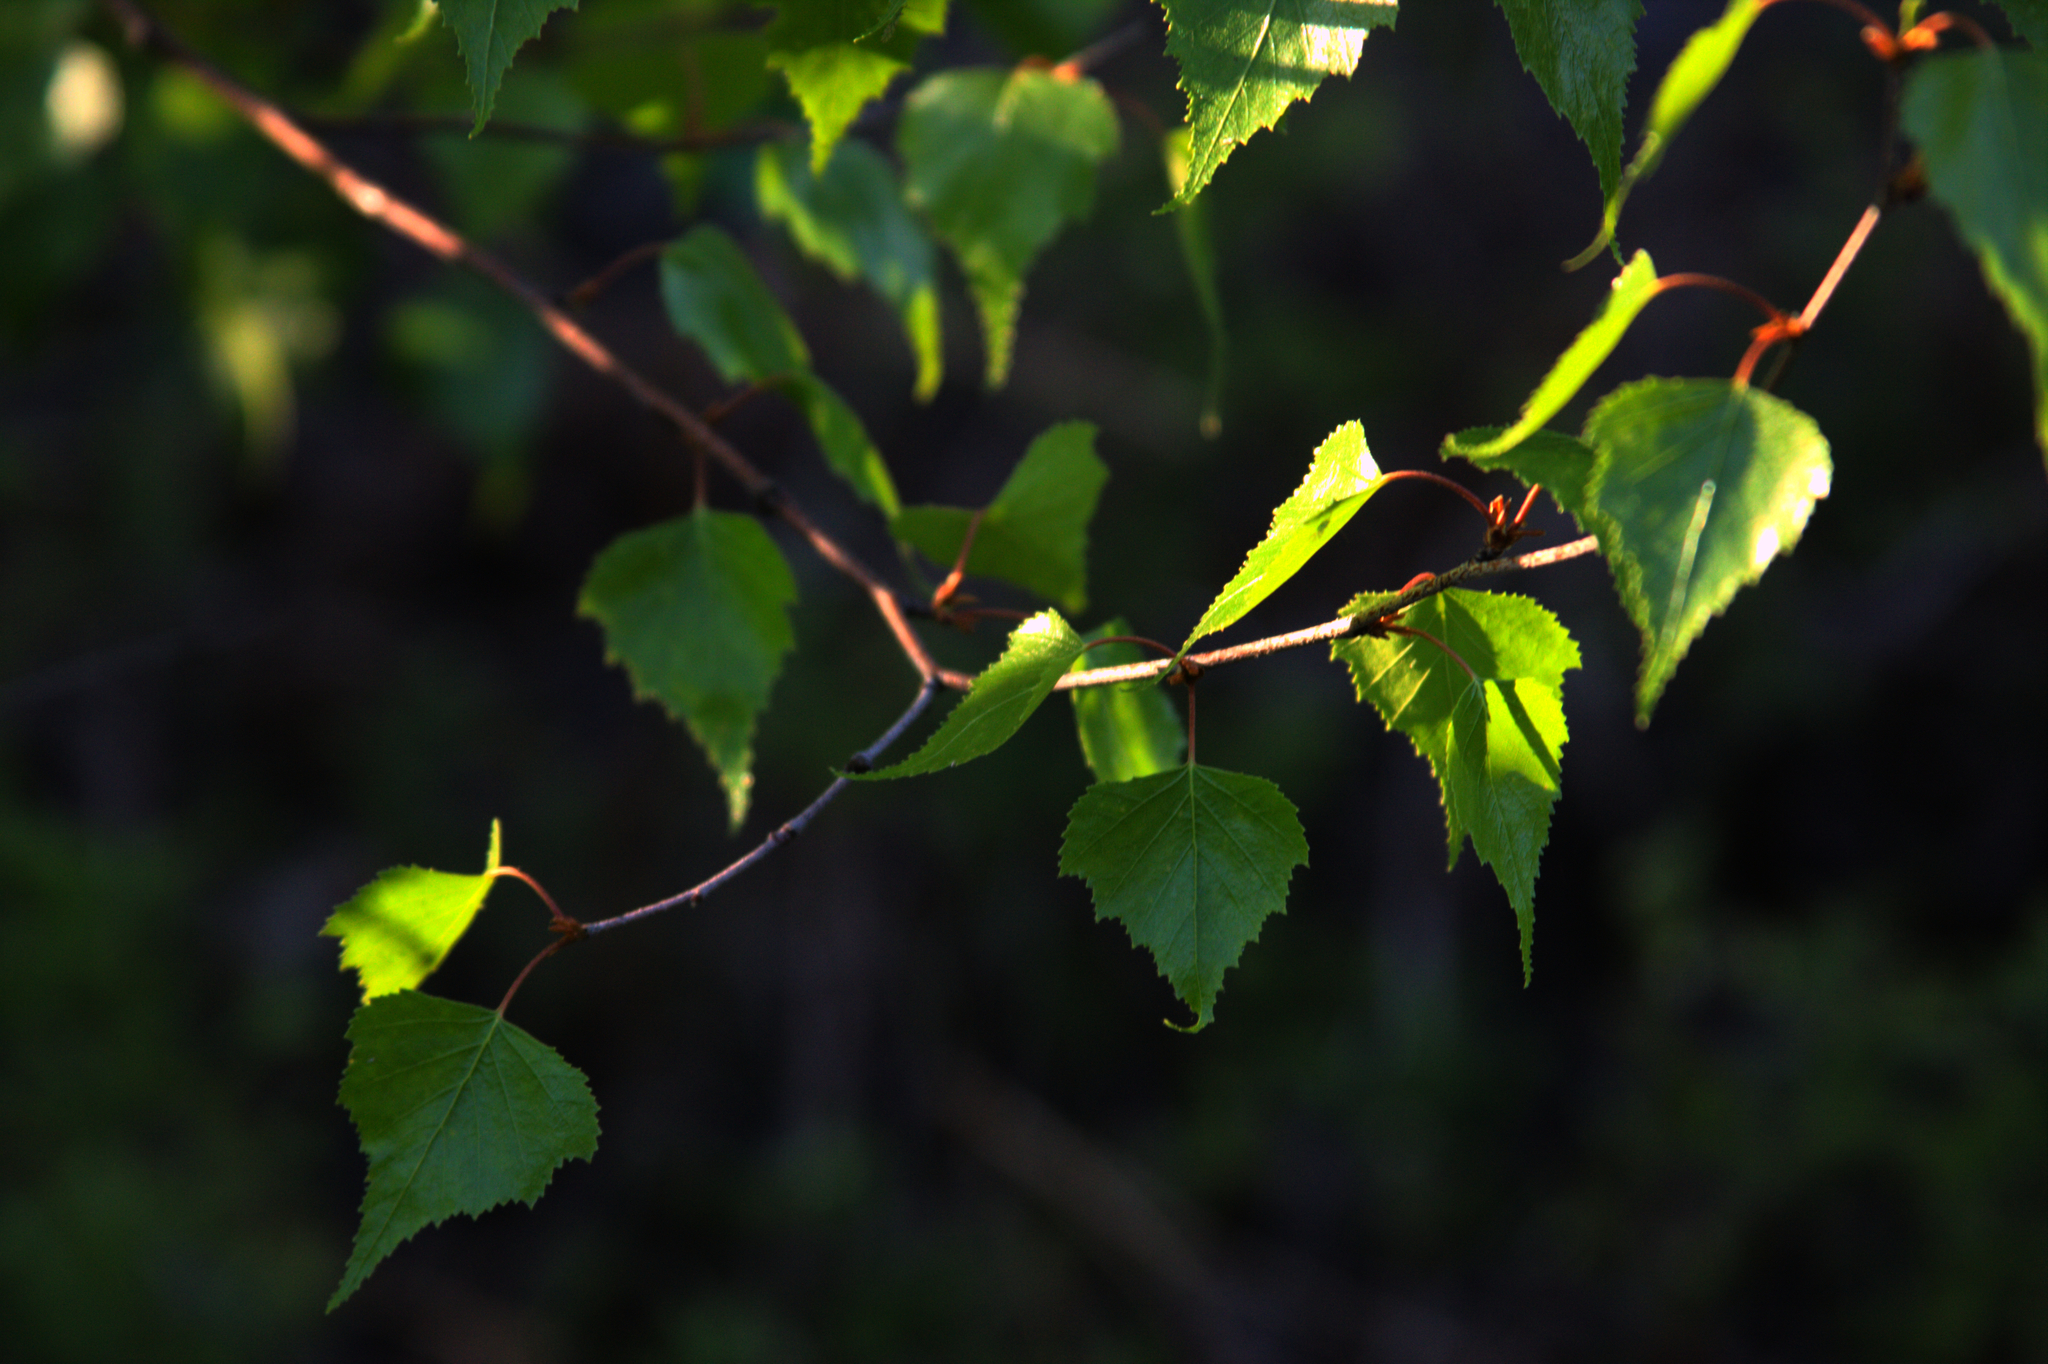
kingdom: Plantae
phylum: Tracheophyta
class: Magnoliopsida
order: Fagales
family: Betulaceae
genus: Betula
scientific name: Betula populifolia
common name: Fire birch
